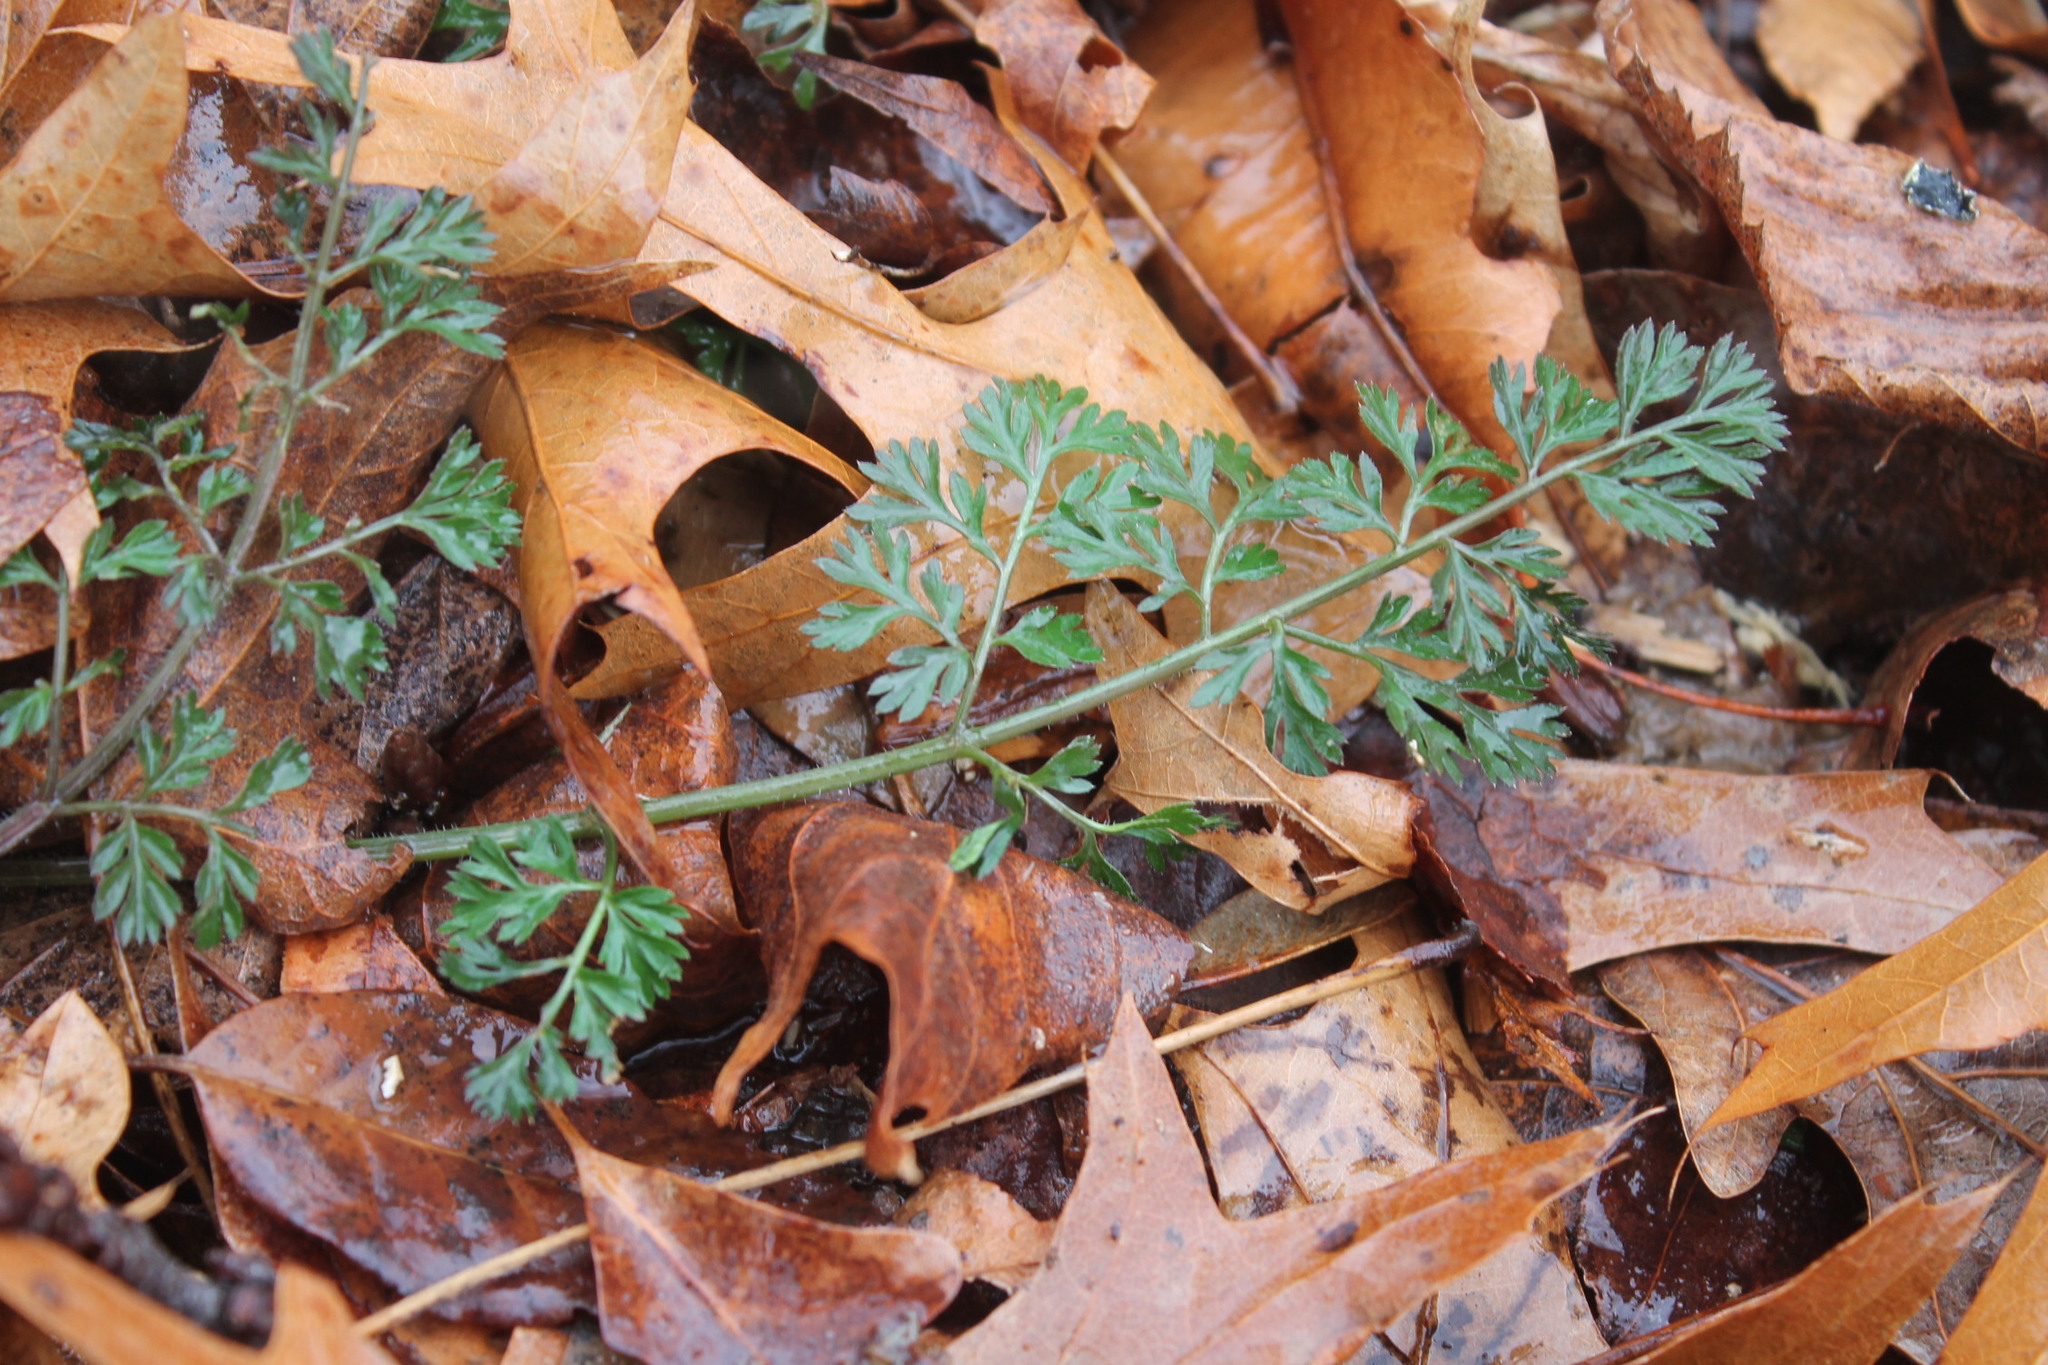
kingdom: Plantae
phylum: Tracheophyta
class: Magnoliopsida
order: Apiales
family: Apiaceae
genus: Daucus
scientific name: Daucus carota
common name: Wild carrot
